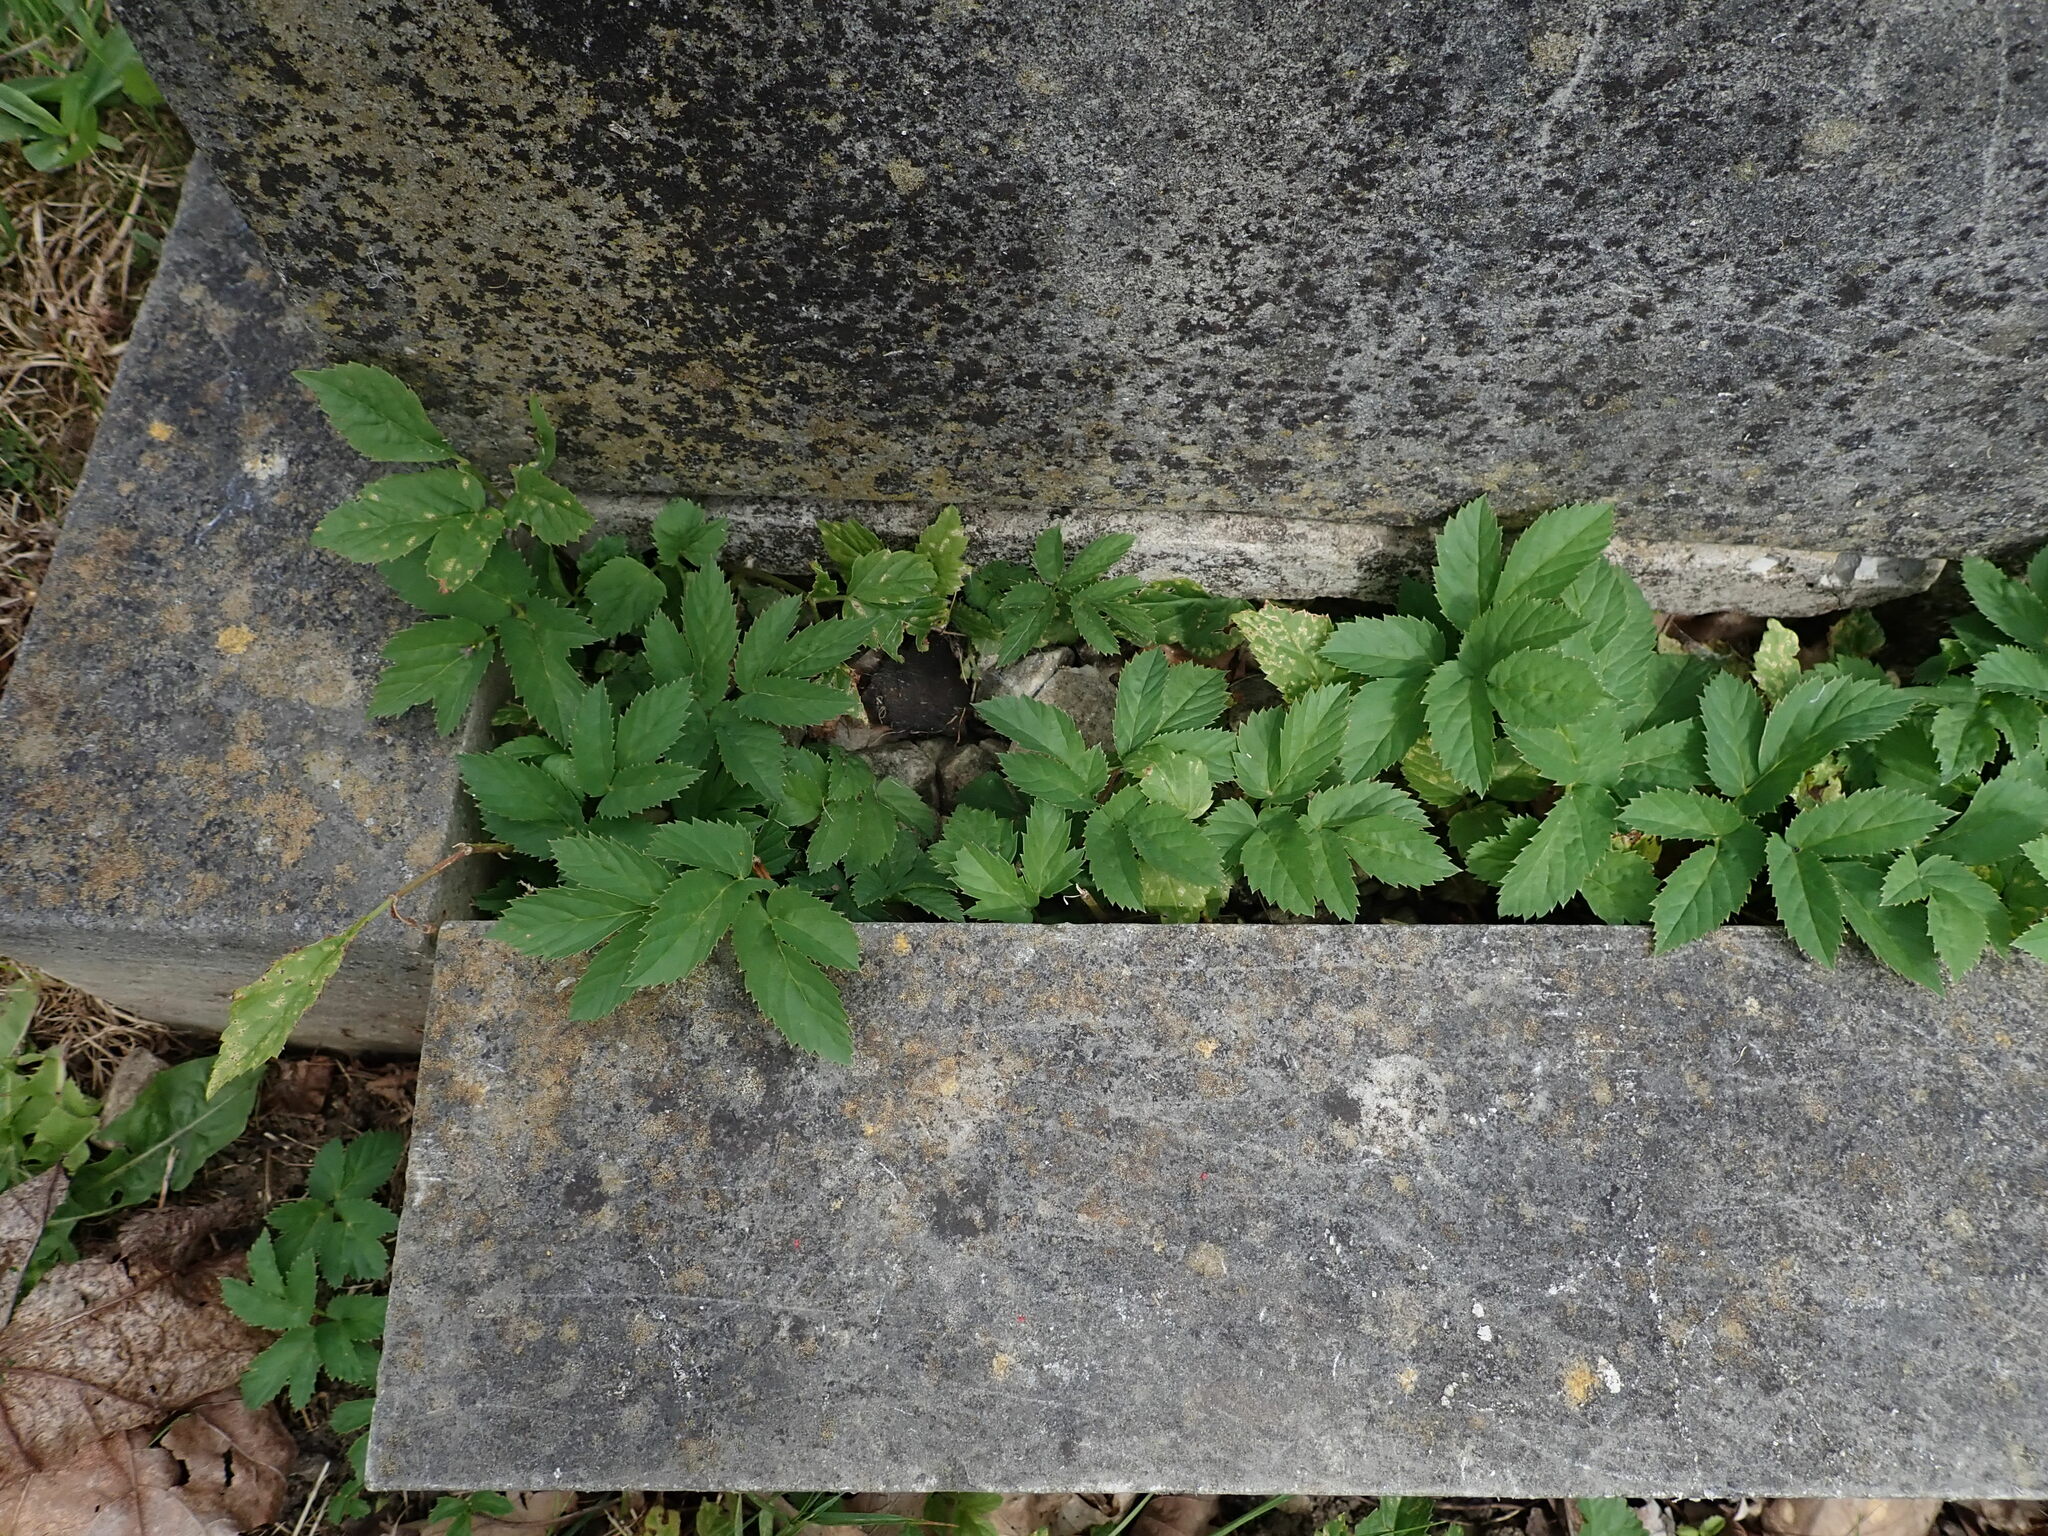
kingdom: Plantae
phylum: Tracheophyta
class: Magnoliopsida
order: Apiales
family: Apiaceae
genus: Aegopodium
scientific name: Aegopodium podagraria
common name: Ground-elder
